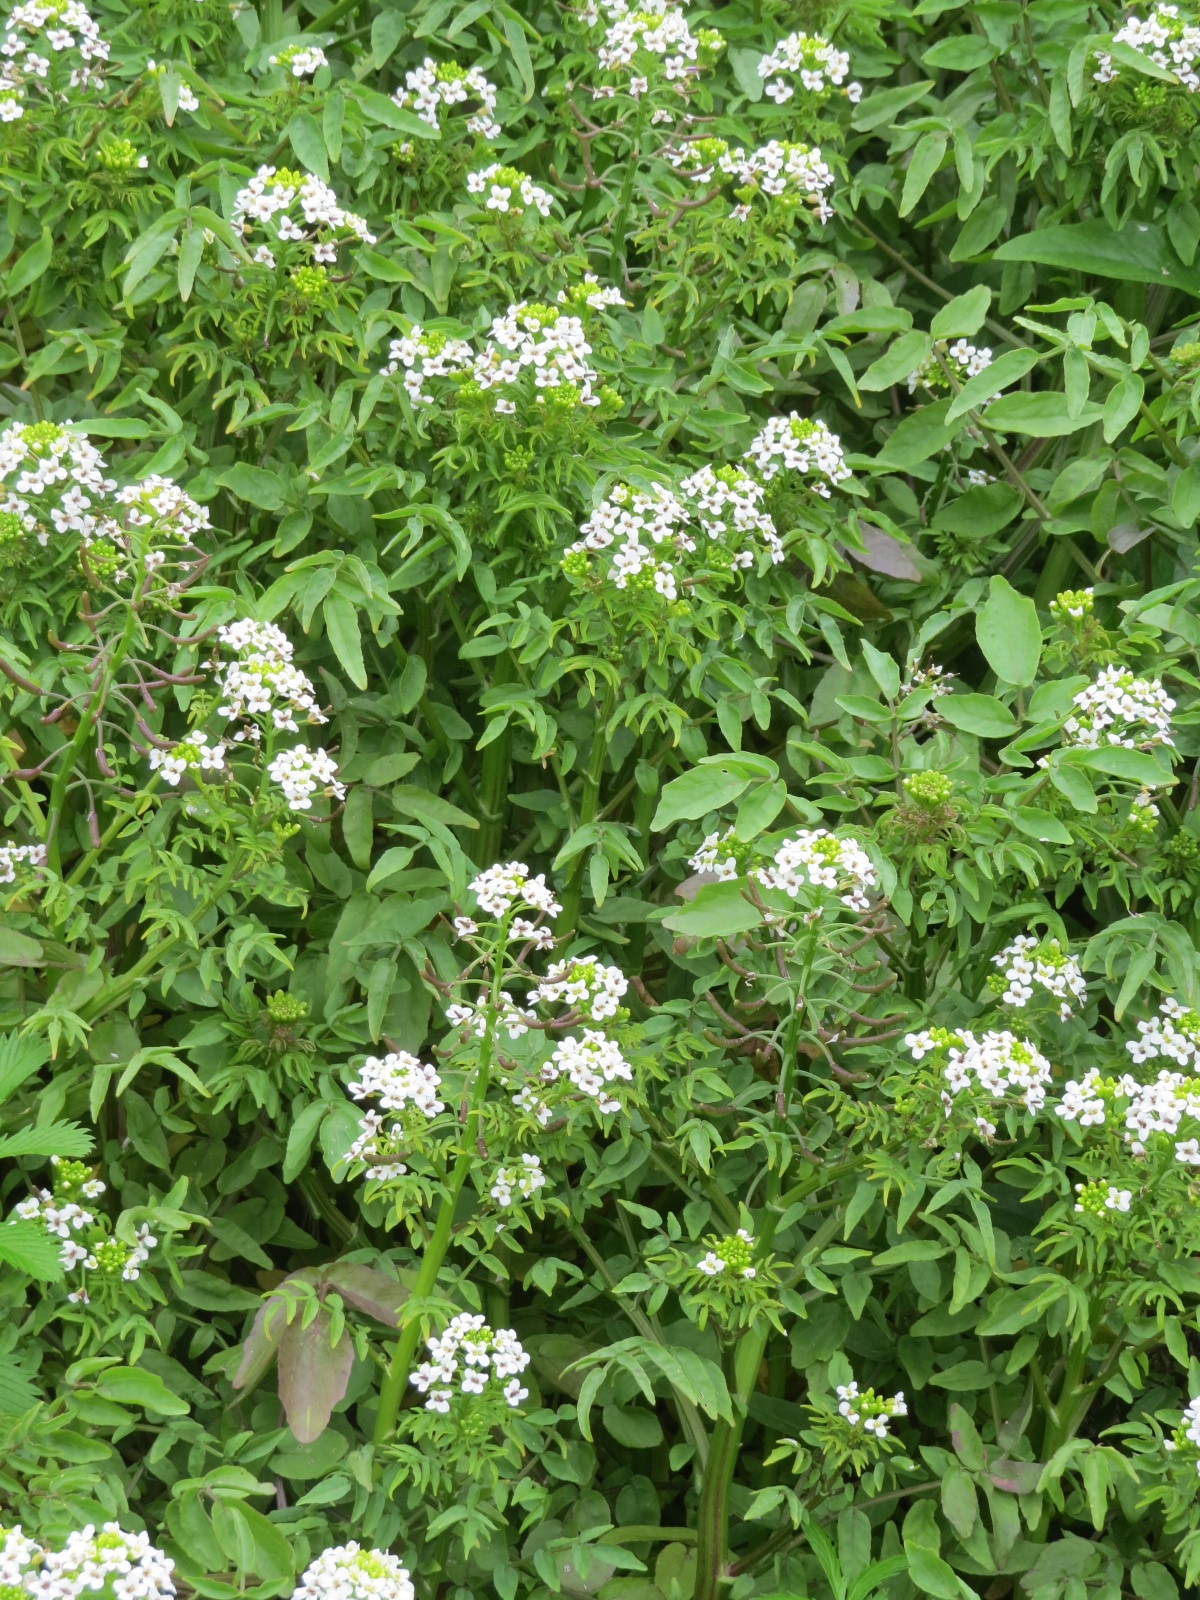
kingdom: Plantae
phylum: Tracheophyta
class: Magnoliopsida
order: Brassicales
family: Brassicaceae
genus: Nasturtium
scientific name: Nasturtium officinale
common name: Watercress
